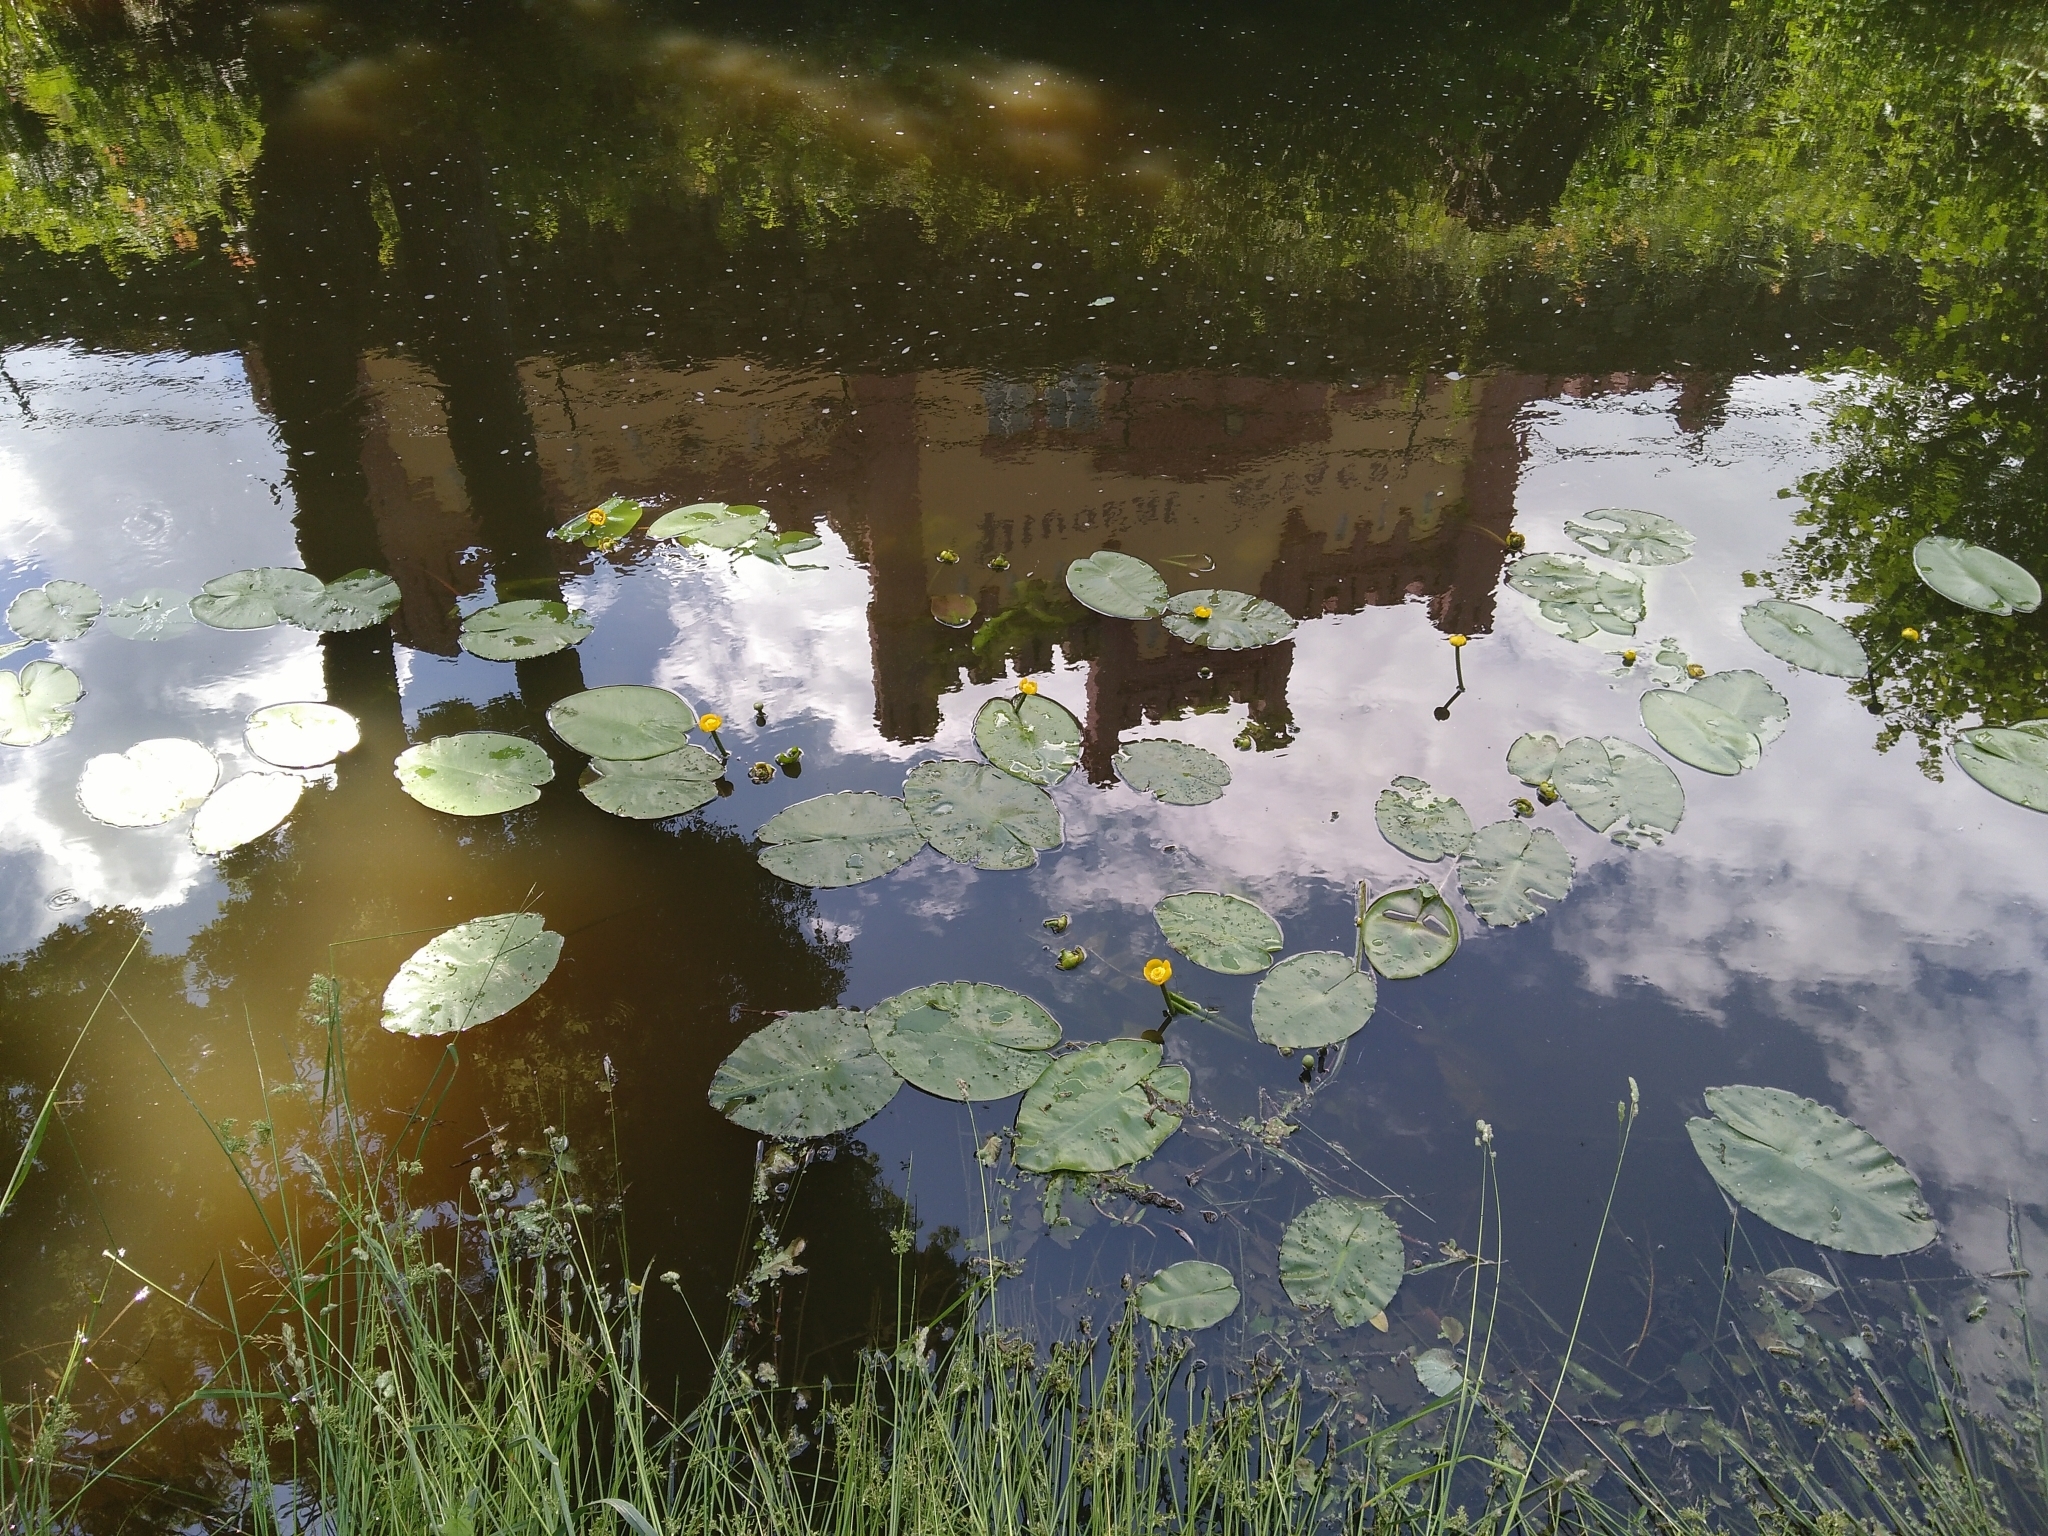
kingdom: Plantae
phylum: Tracheophyta
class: Magnoliopsida
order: Nymphaeales
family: Nymphaeaceae
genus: Nuphar
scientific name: Nuphar lutea
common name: Yellow water-lily
